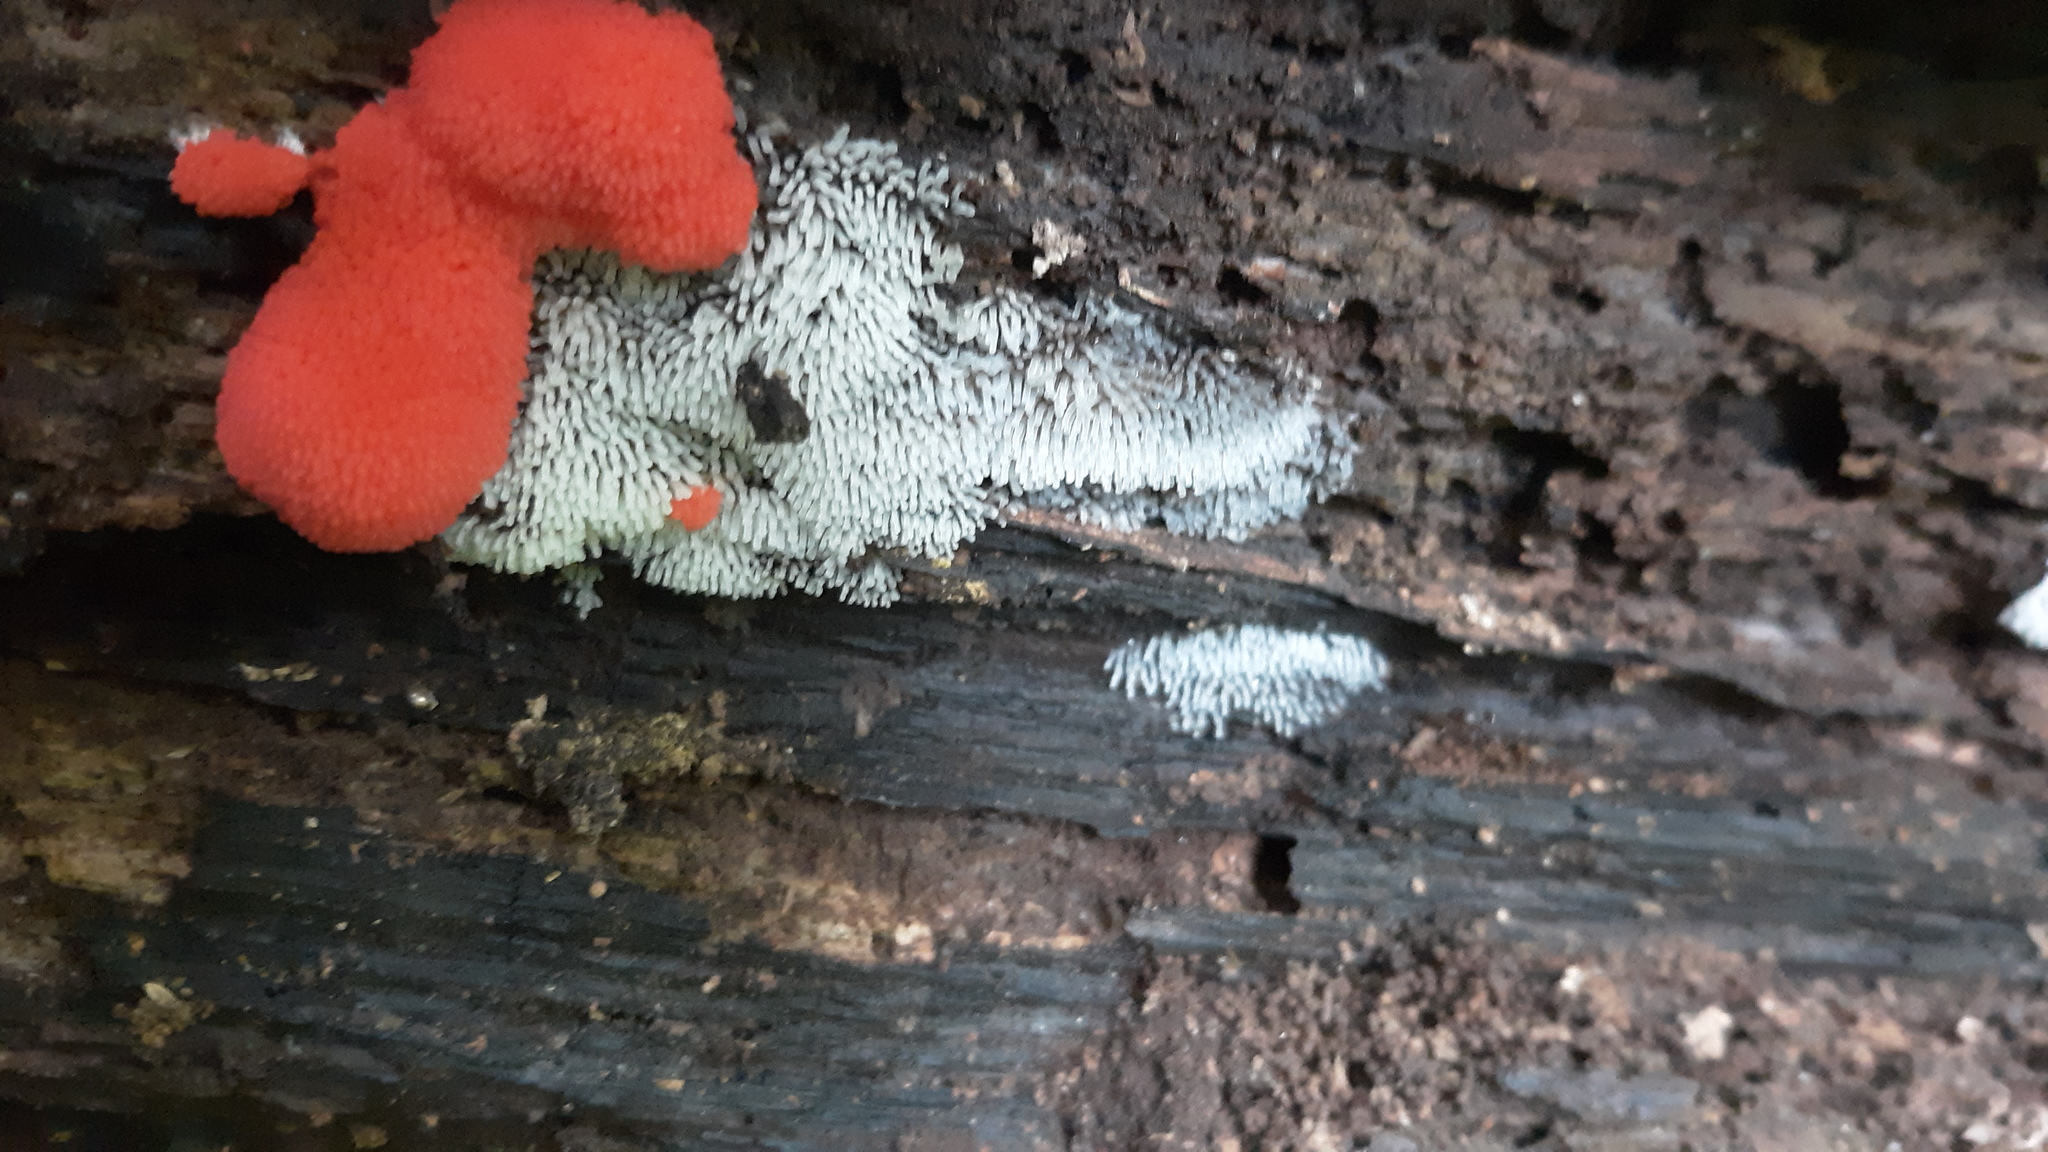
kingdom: Protozoa
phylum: Mycetozoa
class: Protosteliomycetes
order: Ceratiomyxales
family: Ceratiomyxaceae
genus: Ceratiomyxa
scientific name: Ceratiomyxa fruticulosa
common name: Honeycomb coral slime mold
